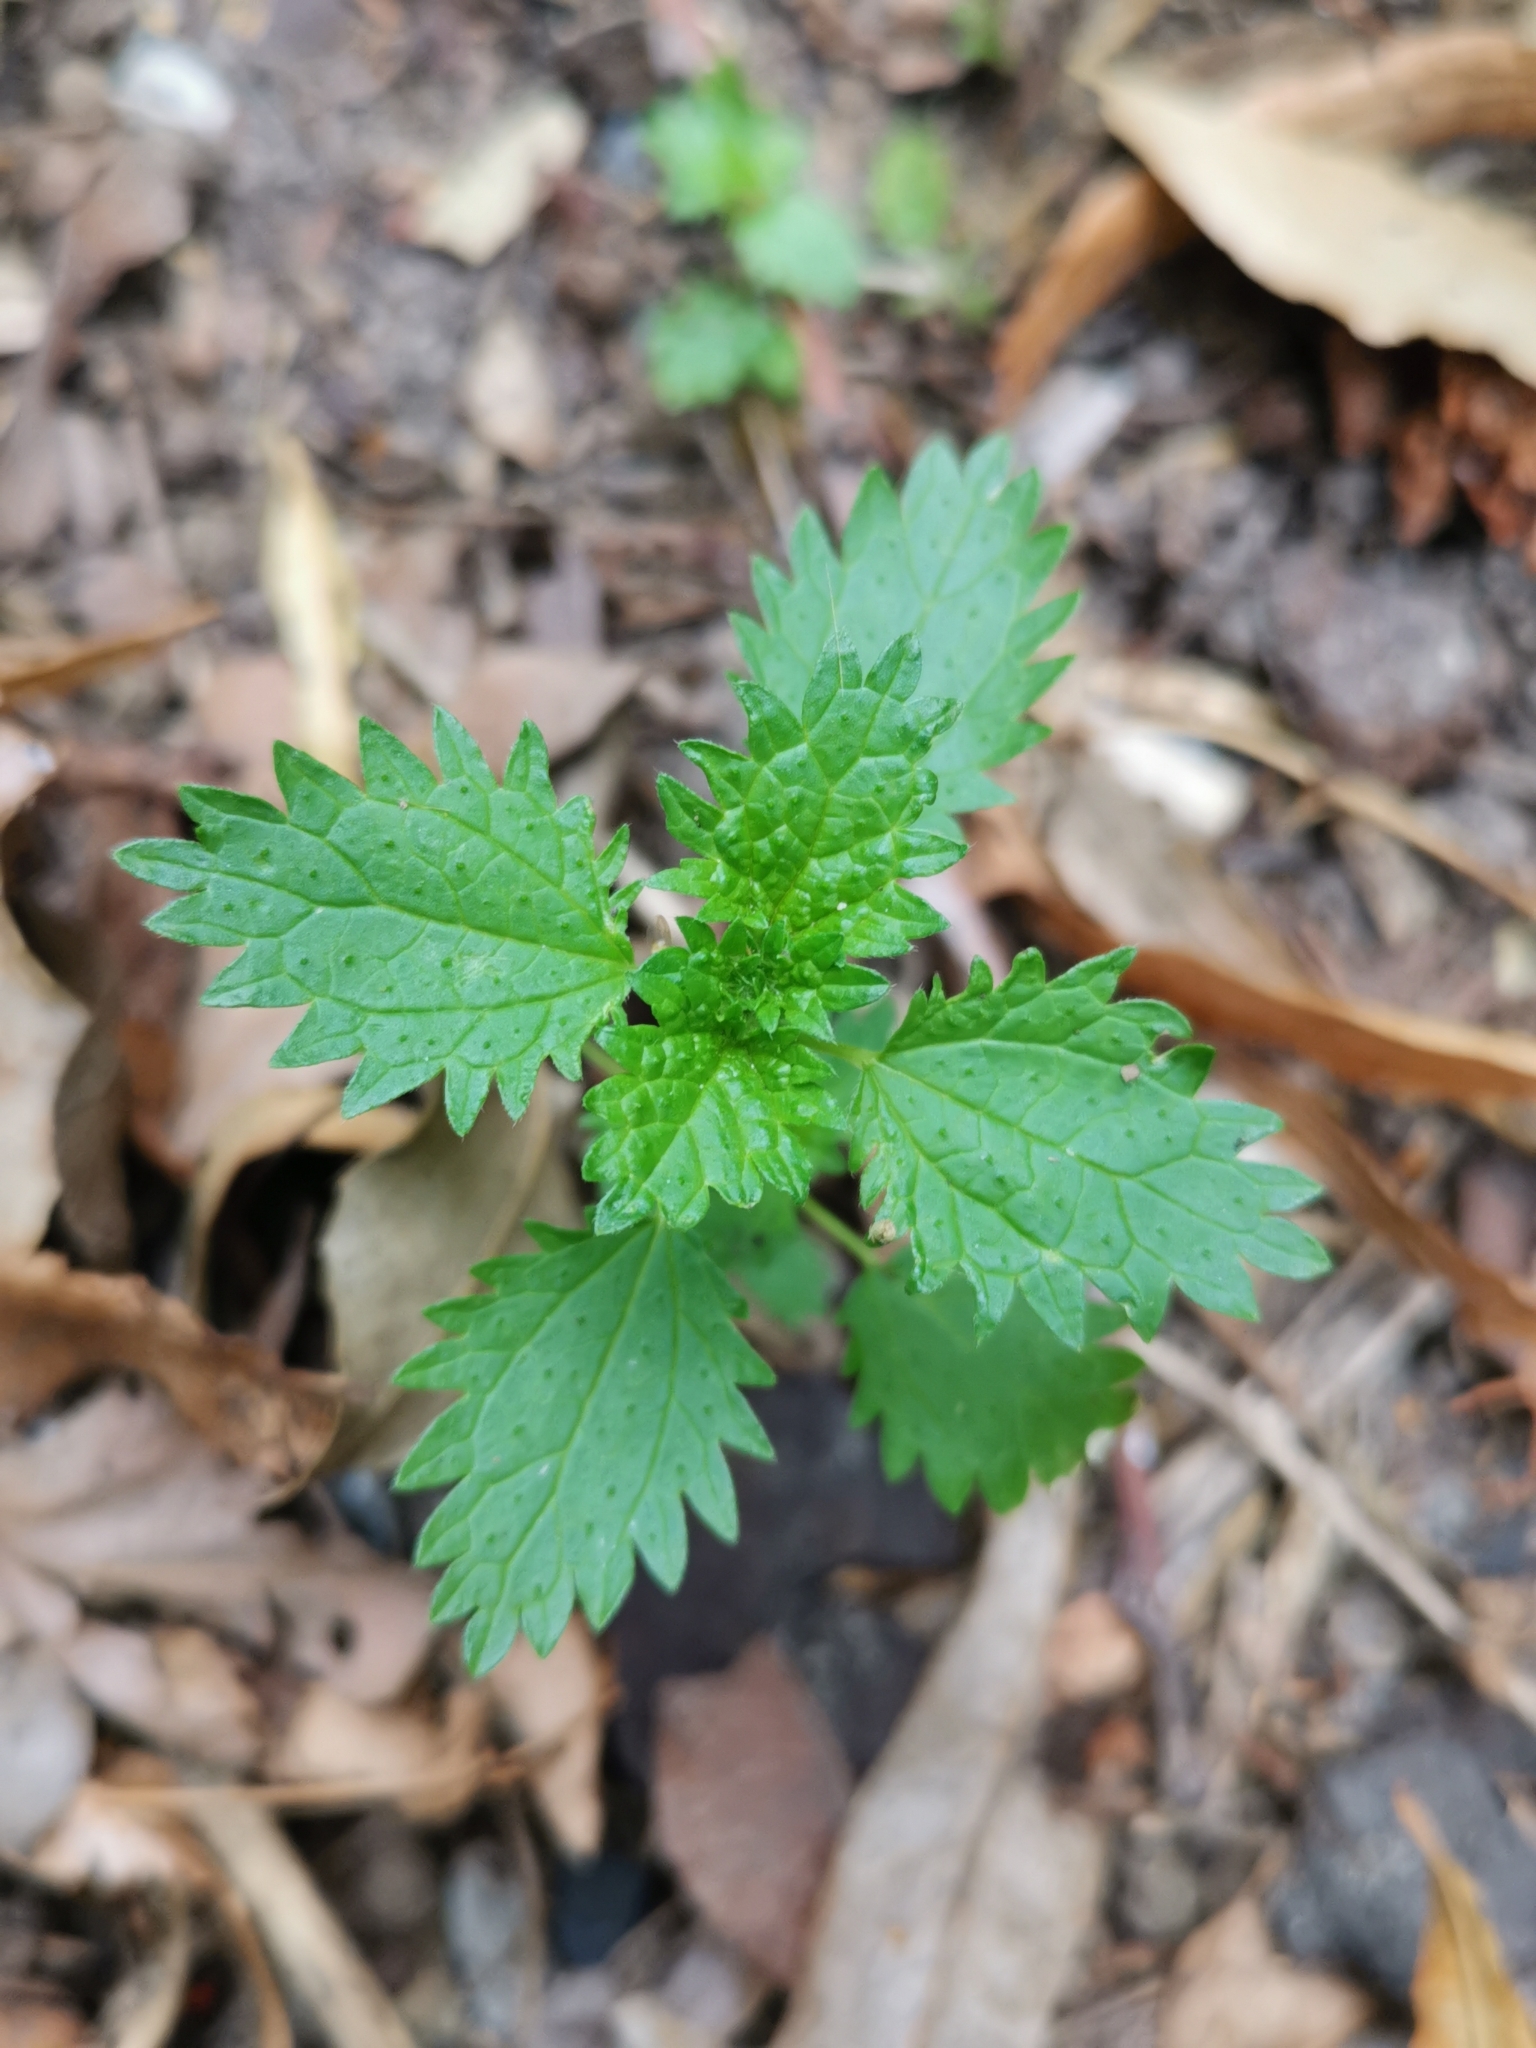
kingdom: Plantae
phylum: Tracheophyta
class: Magnoliopsida
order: Rosales
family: Urticaceae
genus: Urtica
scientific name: Urtica urens
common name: Dwarf nettle
